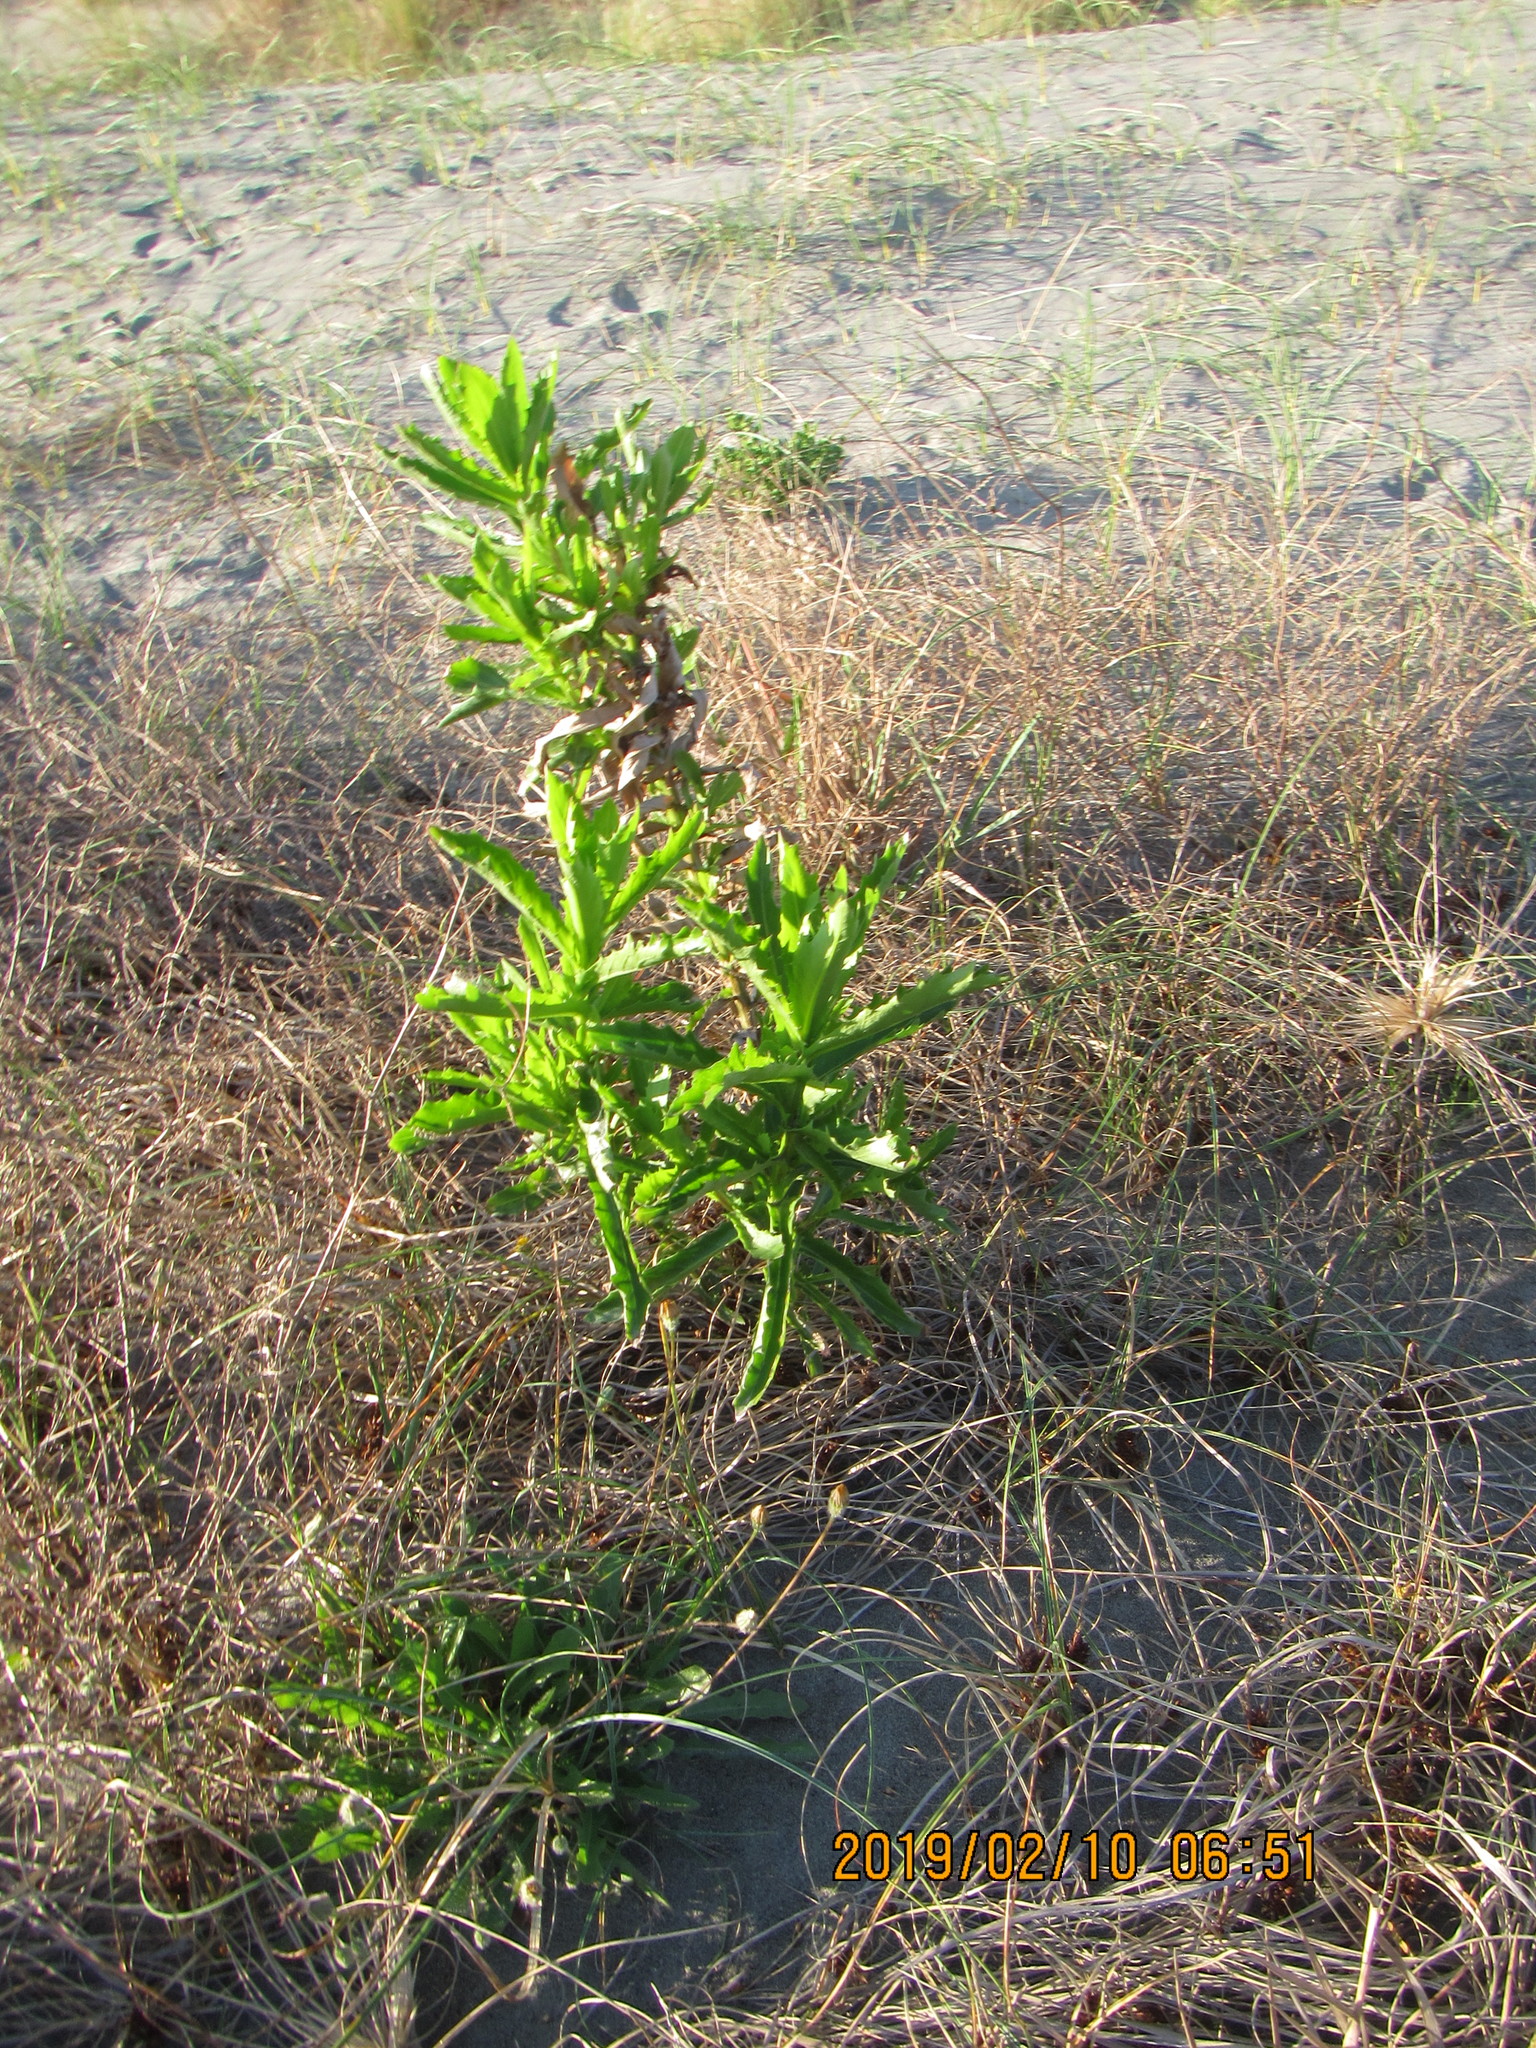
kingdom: Plantae
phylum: Tracheophyta
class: Magnoliopsida
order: Asterales
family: Asteraceae
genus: Senecio
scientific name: Senecio glastifolius
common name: Woad-leaved ragwort
